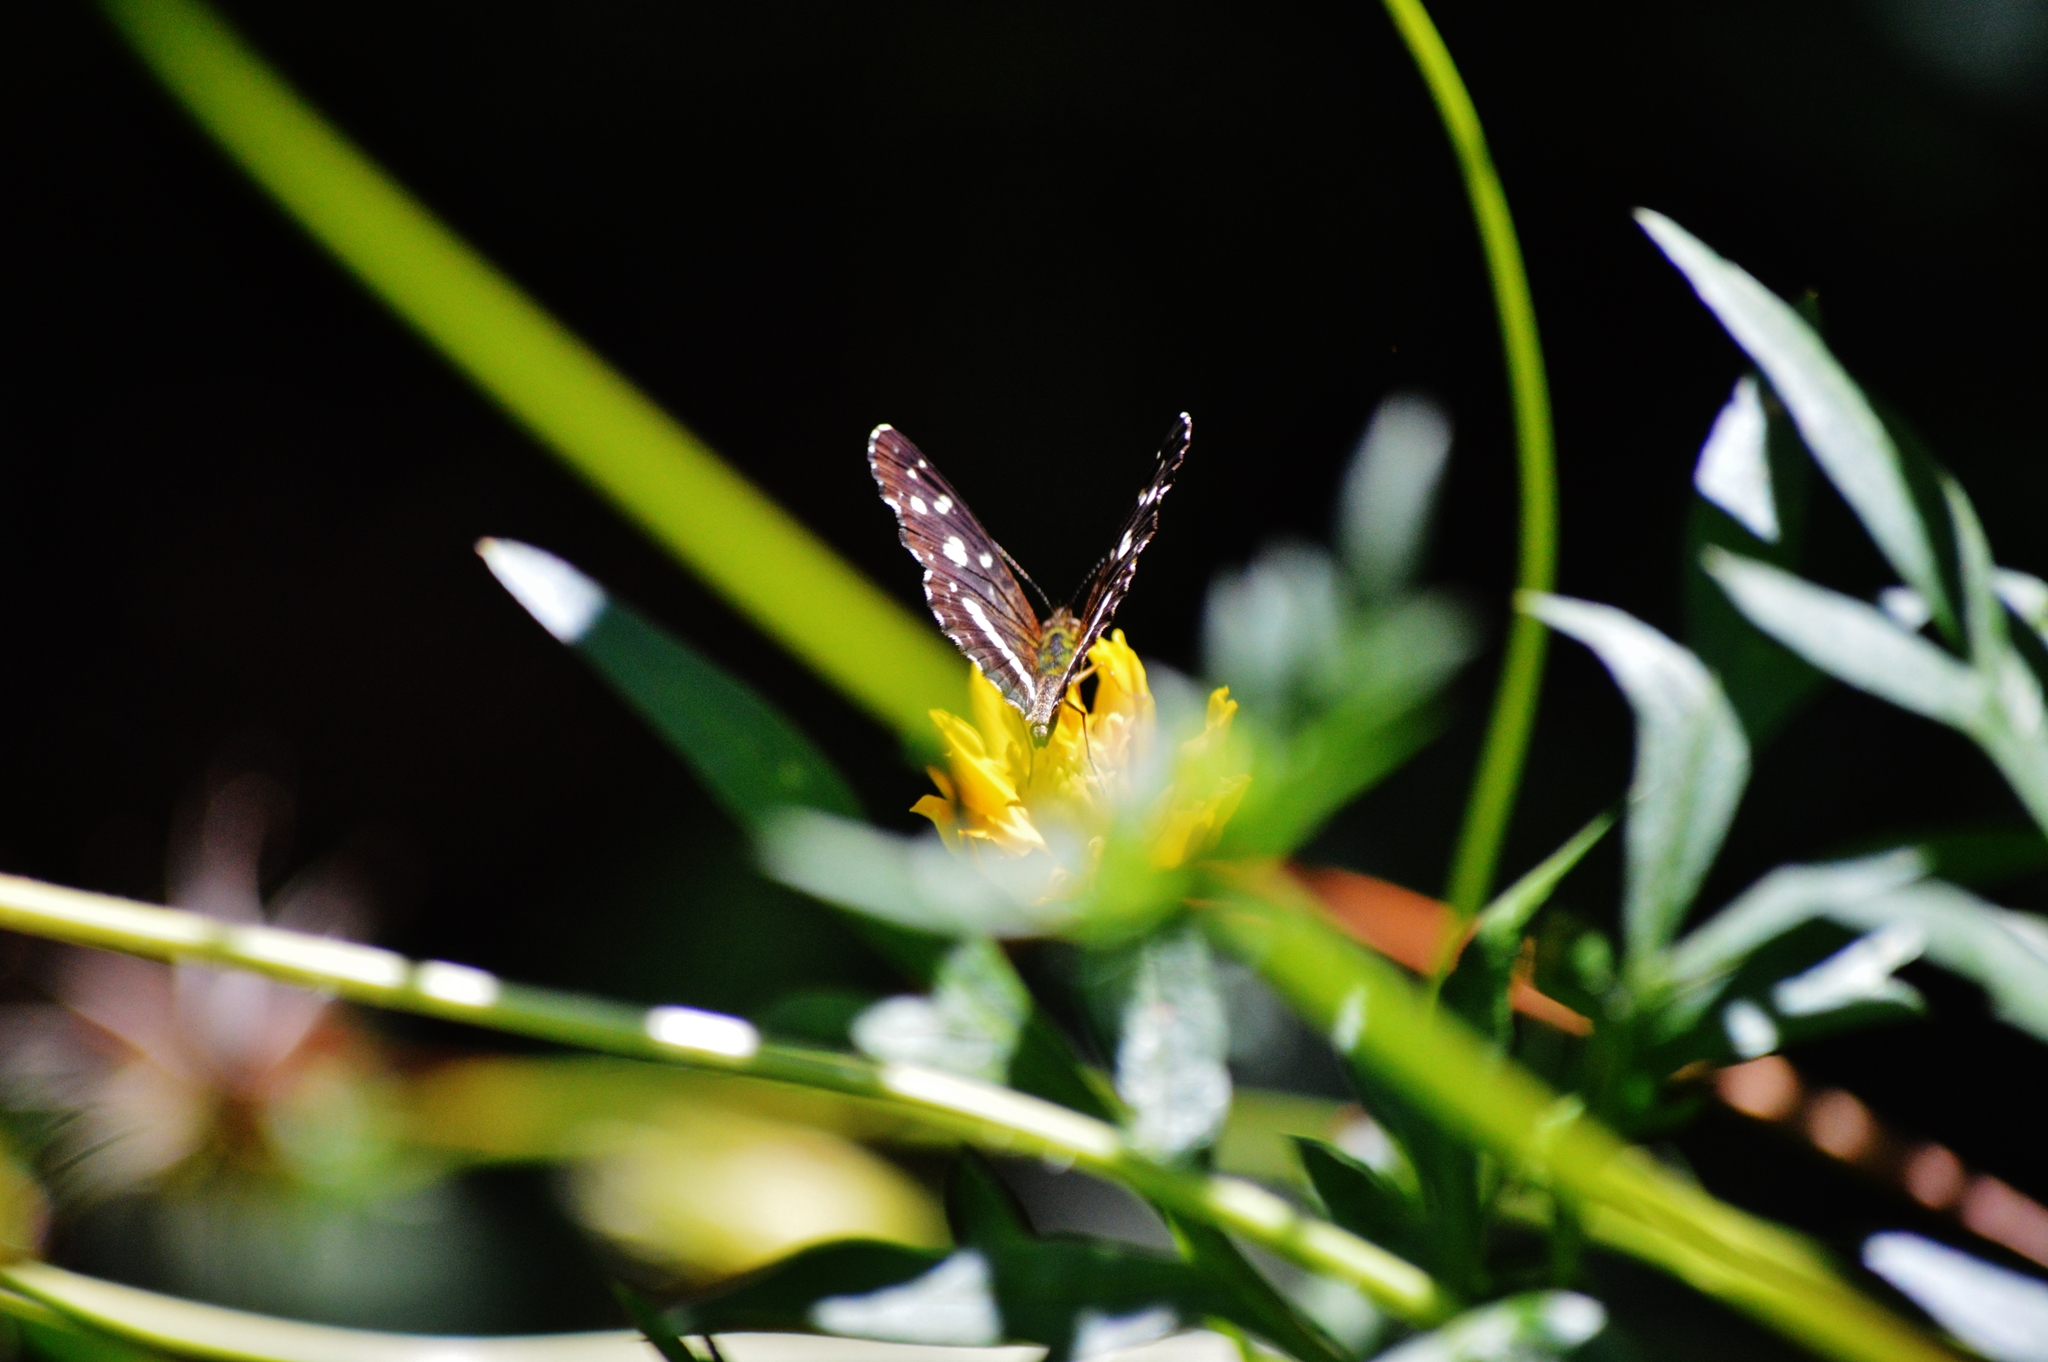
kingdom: Animalia
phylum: Arthropoda
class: Insecta
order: Lepidoptera
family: Nymphalidae
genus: Ortilia
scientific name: Ortilia ithra
